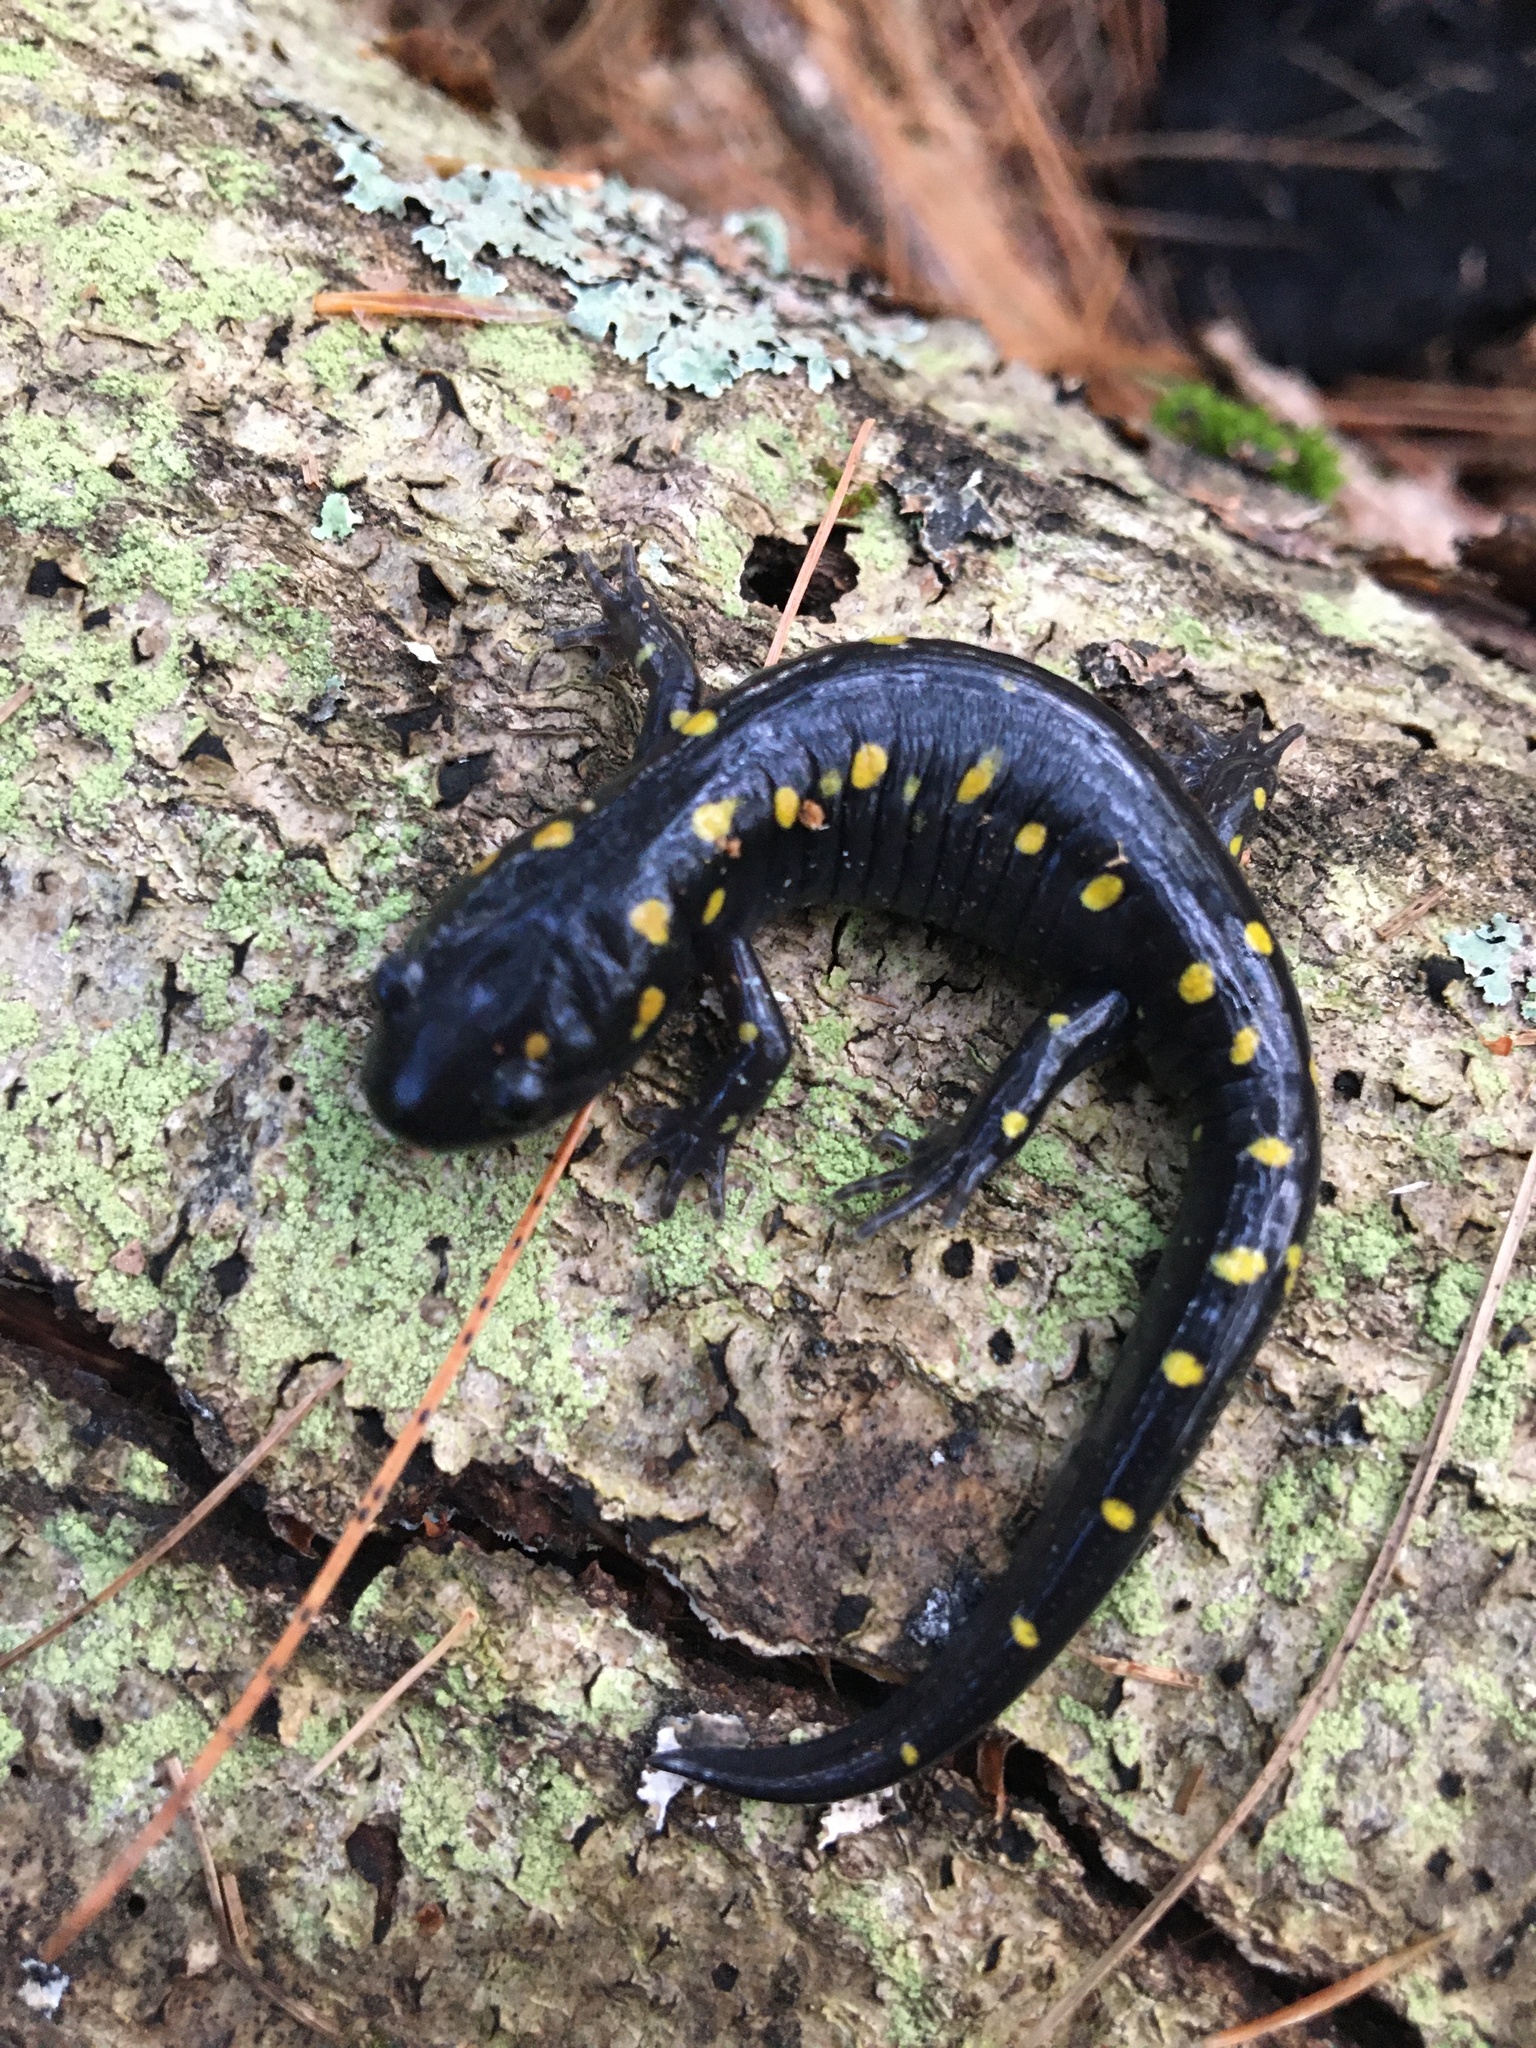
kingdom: Animalia
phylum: Chordata
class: Amphibia
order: Caudata
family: Ambystomatidae
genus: Ambystoma
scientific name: Ambystoma maculatum
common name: Spotted salamander
